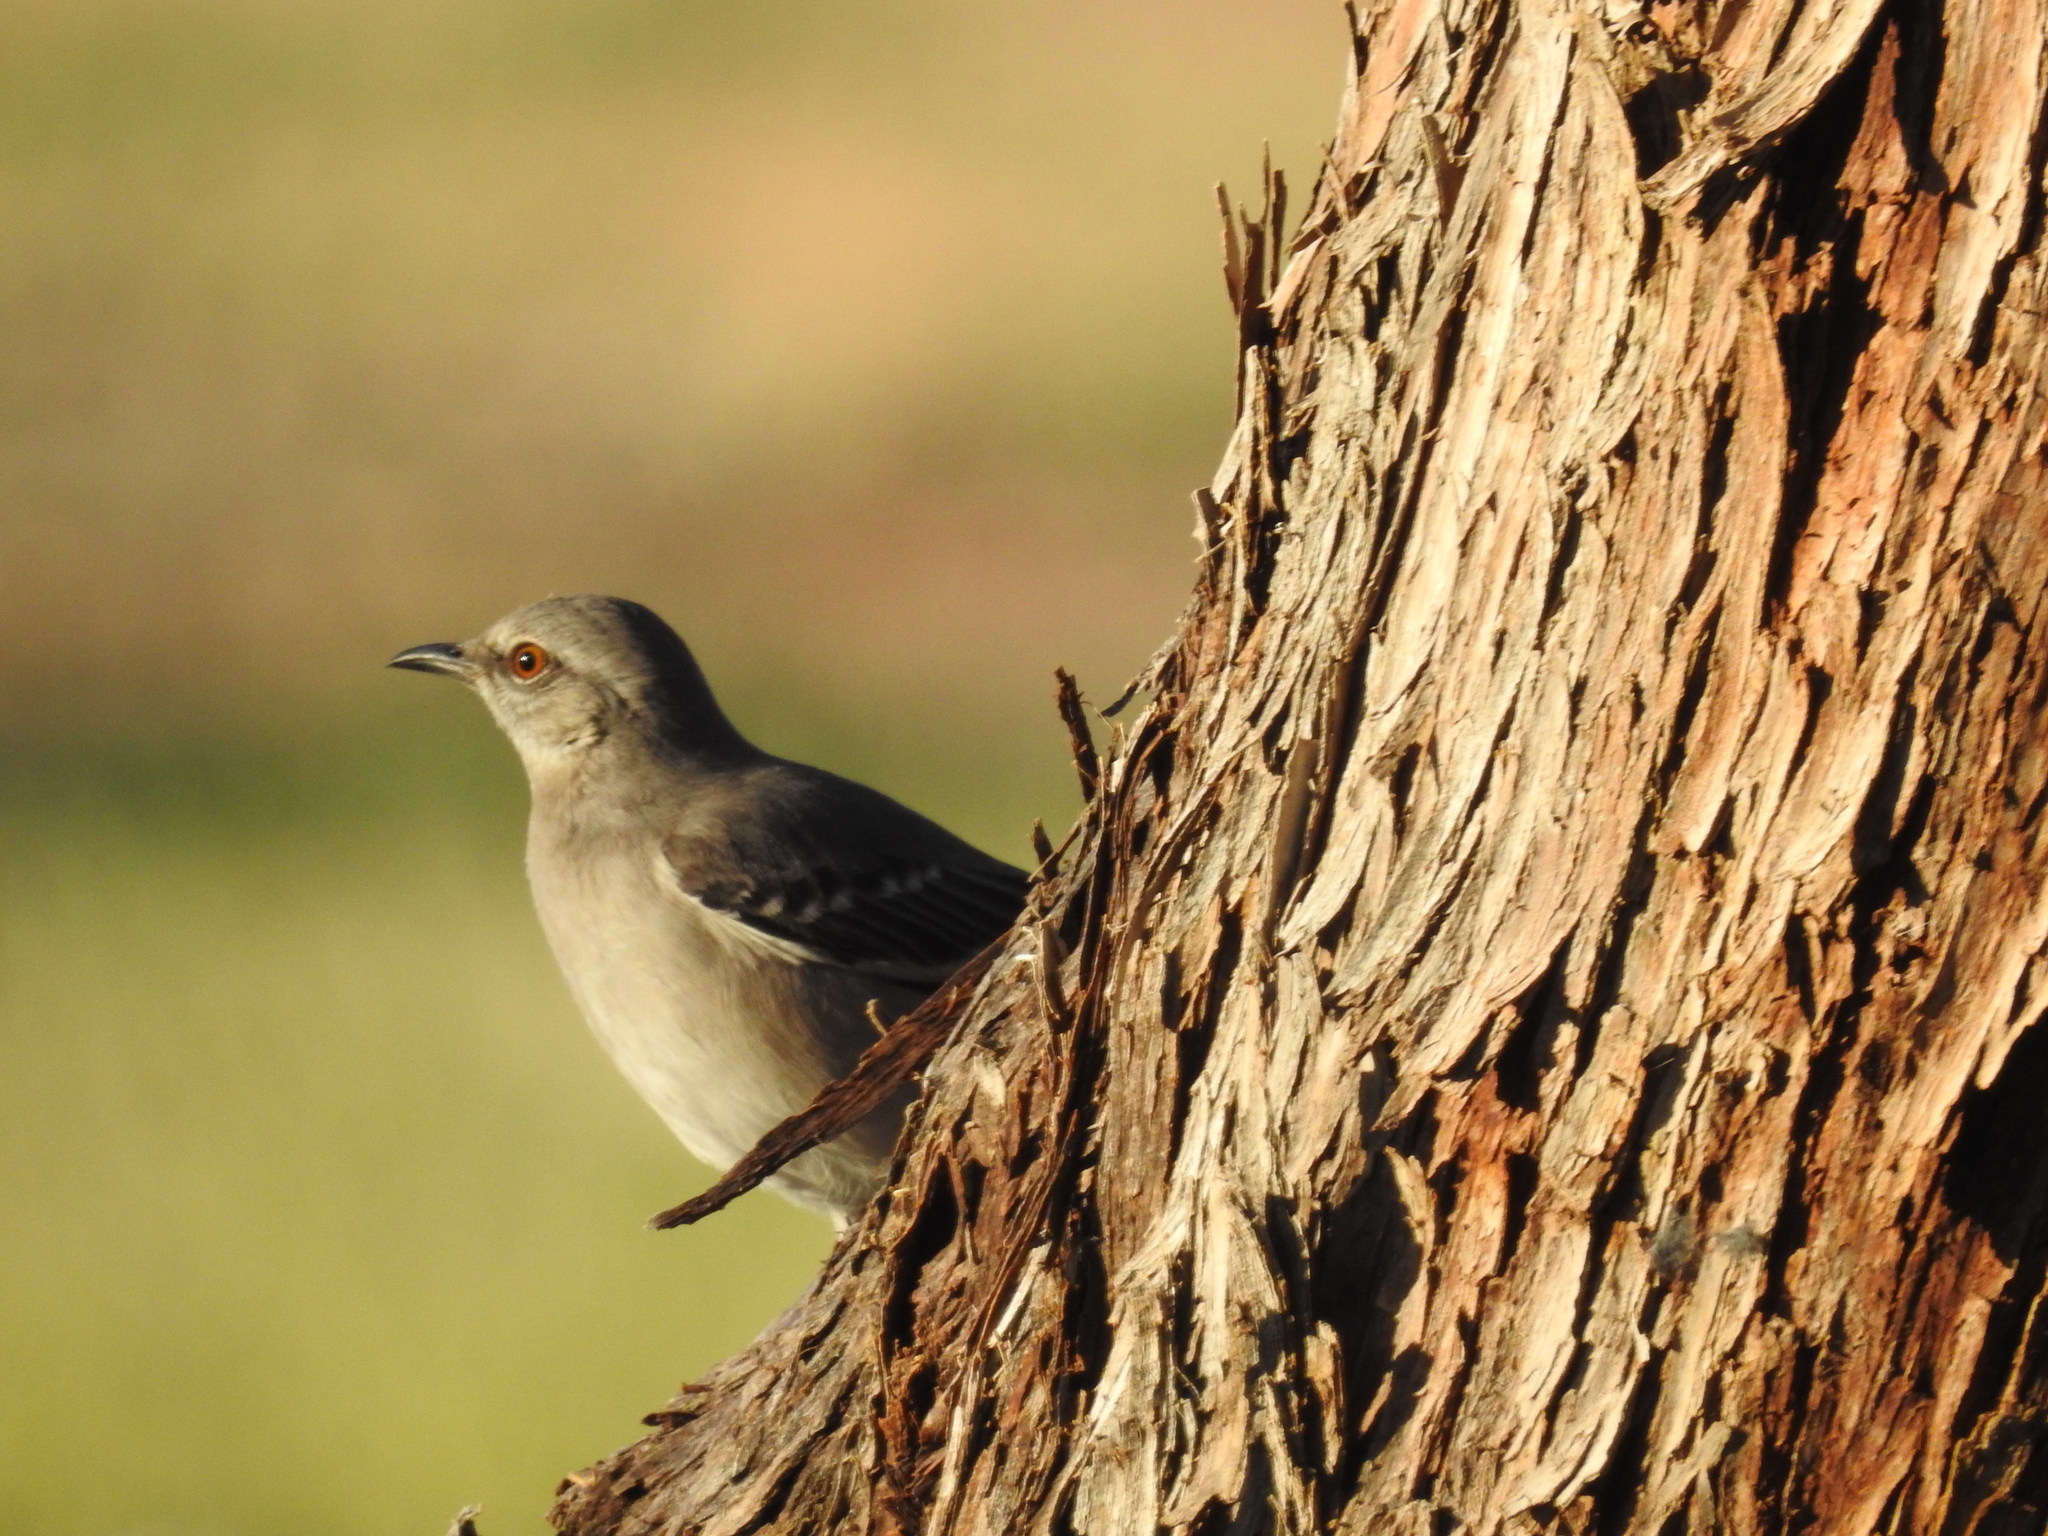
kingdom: Animalia
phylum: Chordata
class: Aves
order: Passeriformes
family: Mimidae
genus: Mimus
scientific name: Mimus polyglottos
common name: Northern mockingbird
